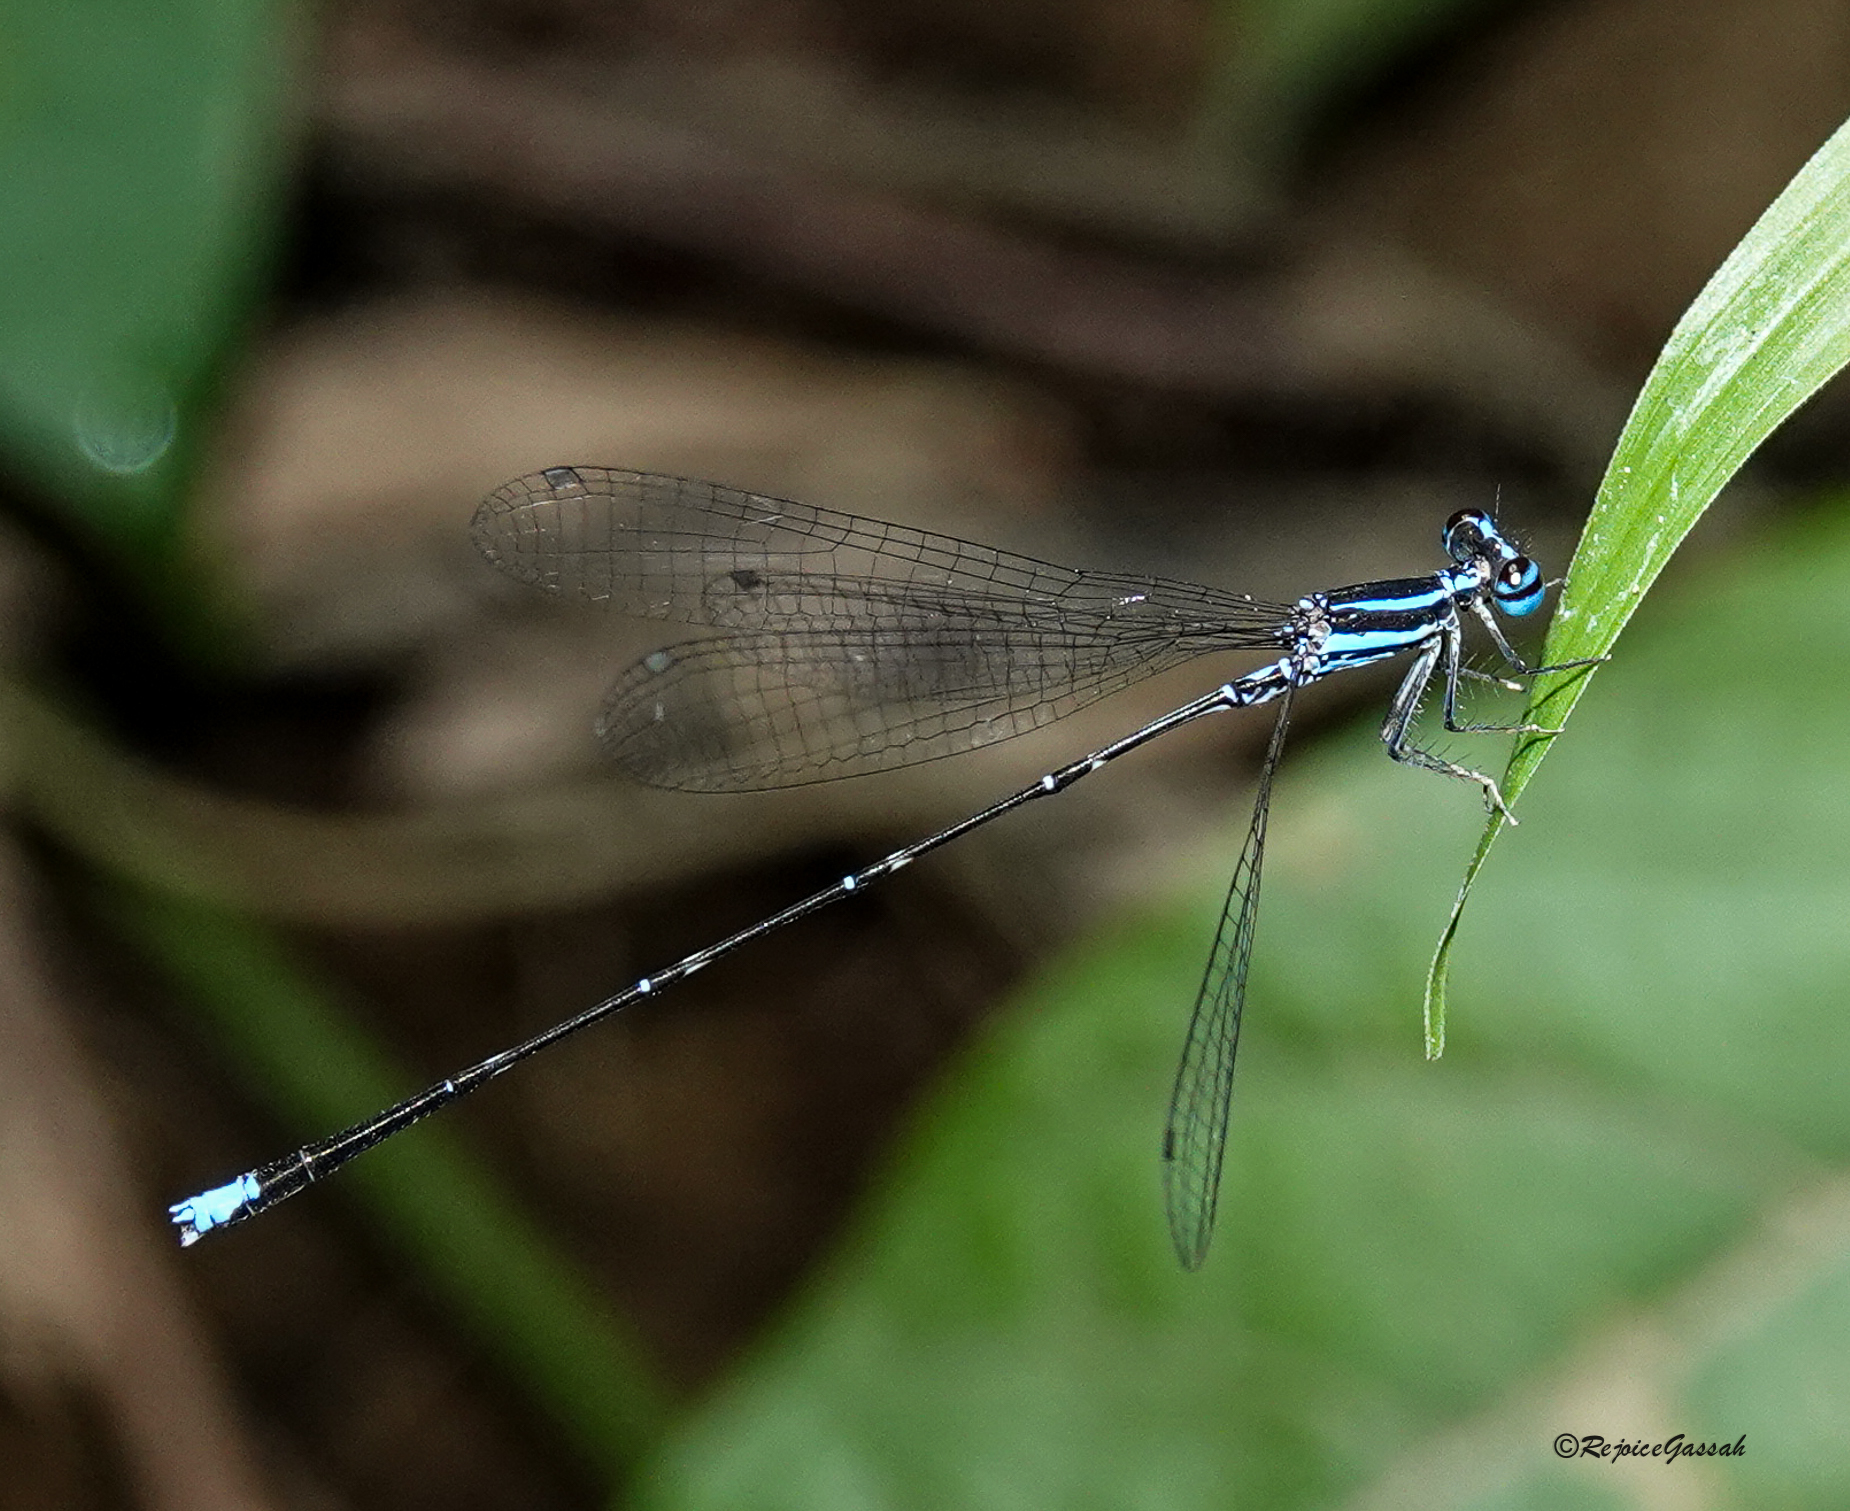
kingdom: Animalia
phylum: Arthropoda
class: Insecta
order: Odonata
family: Platycnemididae
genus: Elattoneura
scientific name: Elattoneura campioni
